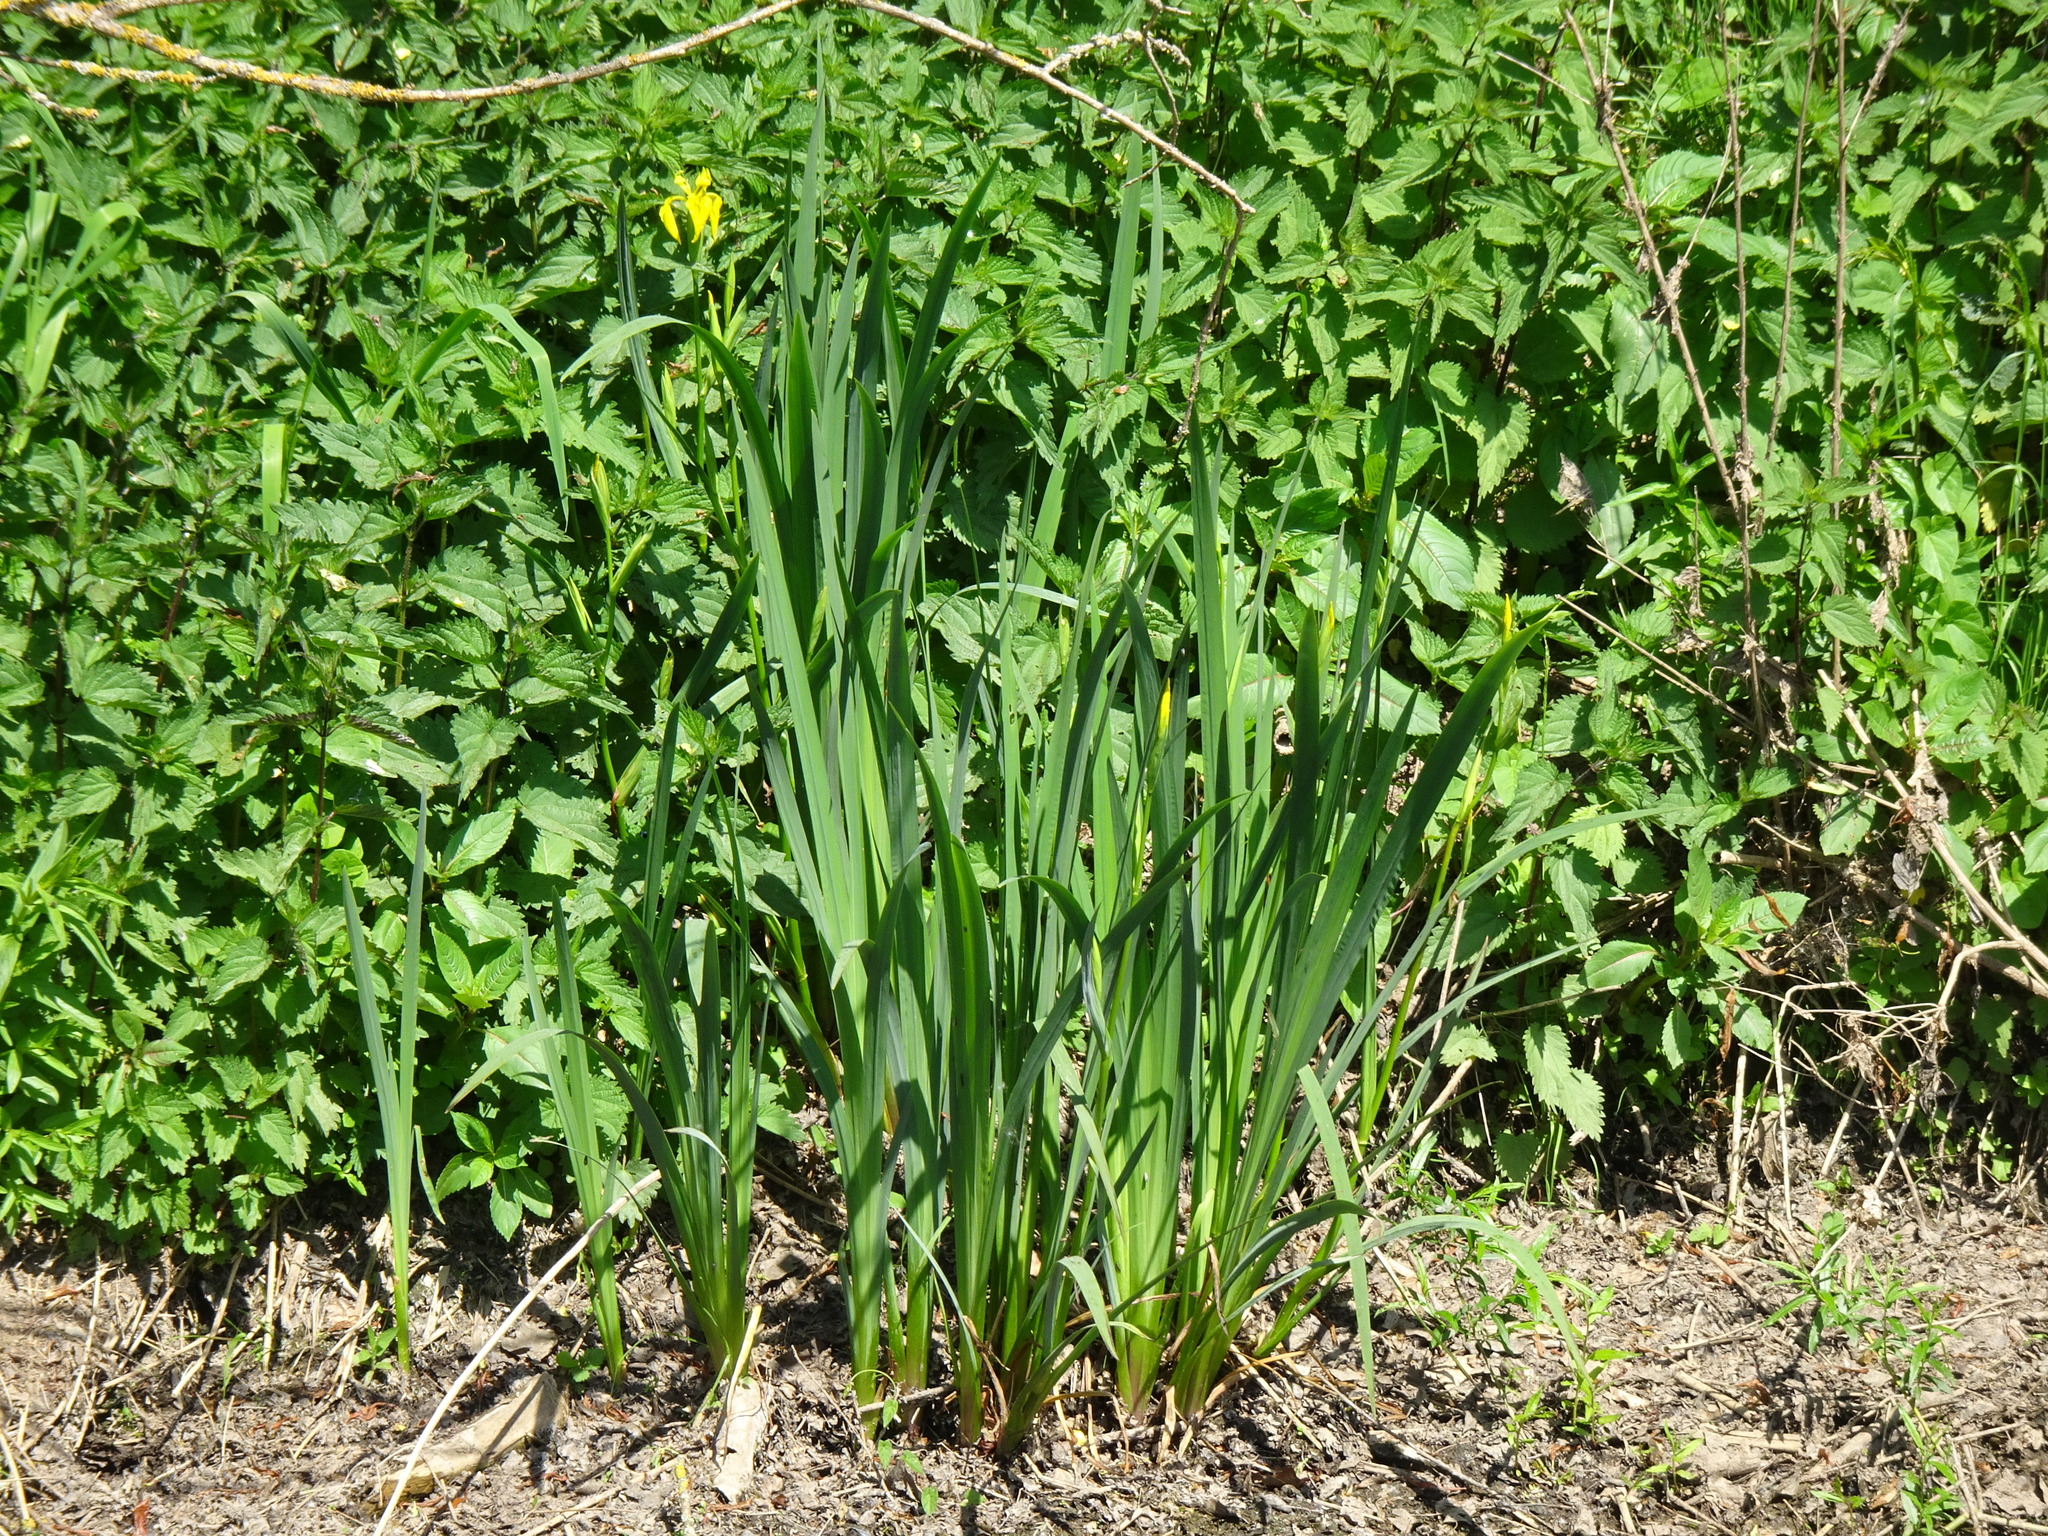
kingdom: Plantae
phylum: Tracheophyta
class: Liliopsida
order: Asparagales
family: Iridaceae
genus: Iris
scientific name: Iris pseudacorus
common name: Yellow flag
